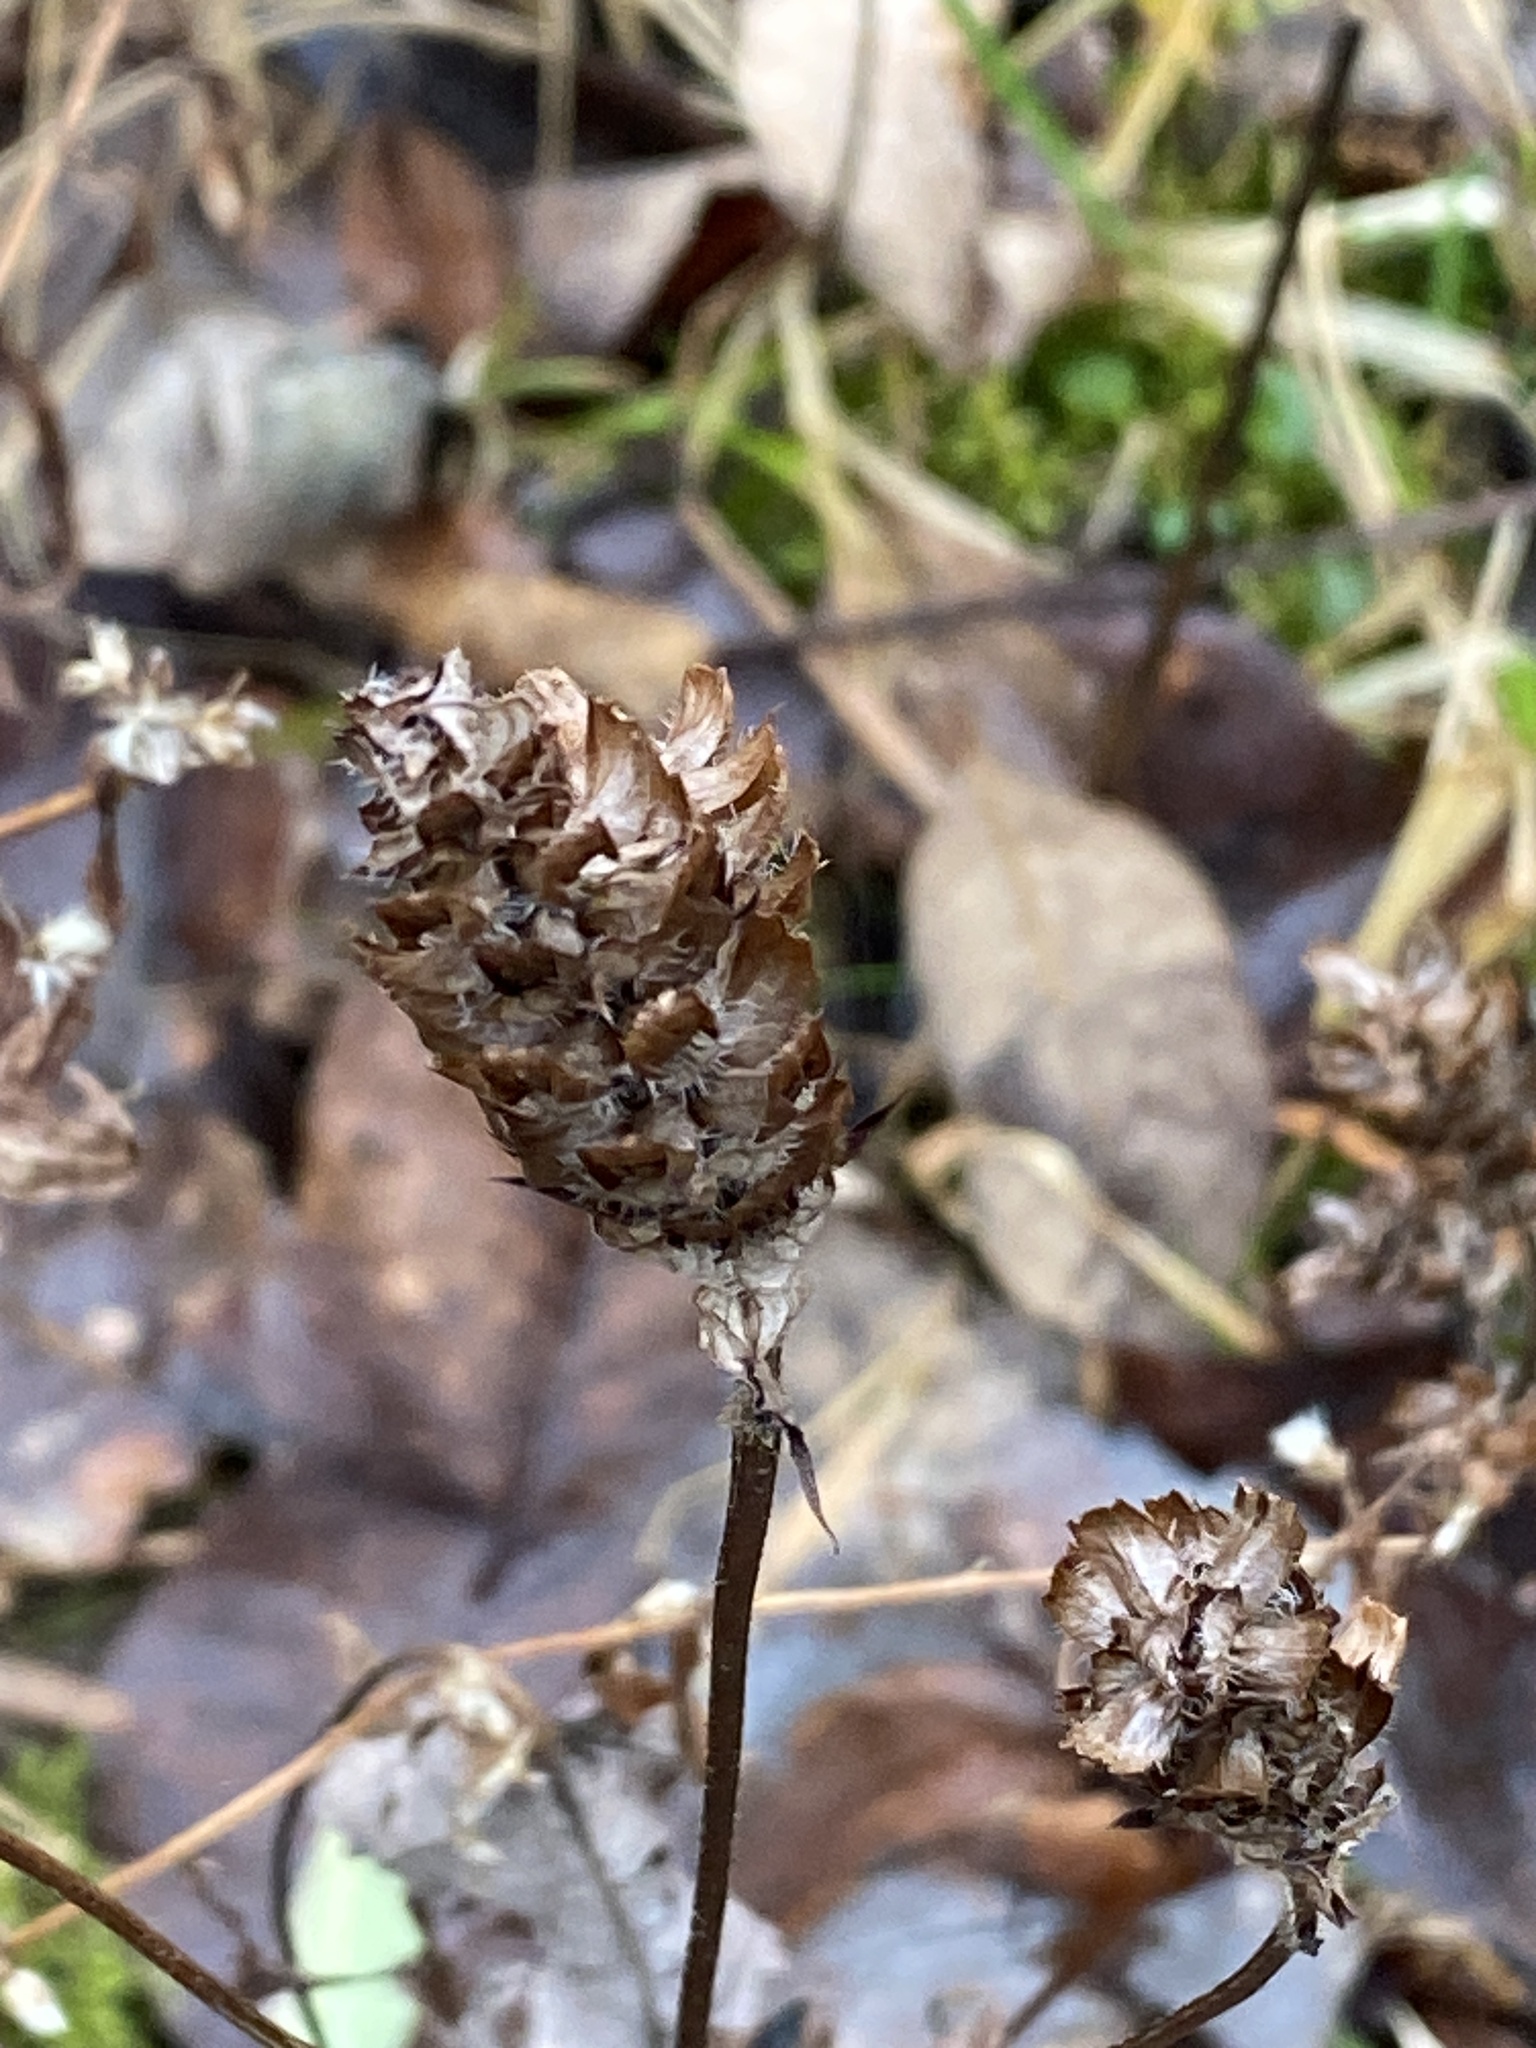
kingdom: Plantae
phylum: Tracheophyta
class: Magnoliopsida
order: Lamiales
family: Lamiaceae
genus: Prunella
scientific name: Prunella vulgaris
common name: Heal-all
